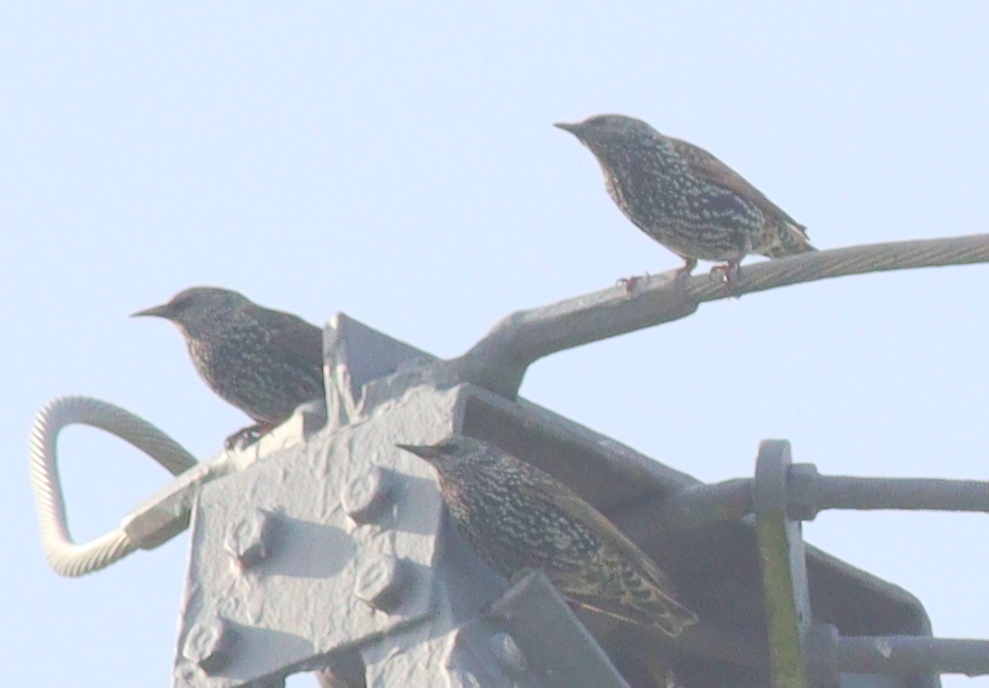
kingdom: Animalia
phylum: Chordata
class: Aves
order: Passeriformes
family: Sturnidae
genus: Sturnus
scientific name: Sturnus vulgaris
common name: Common starling
